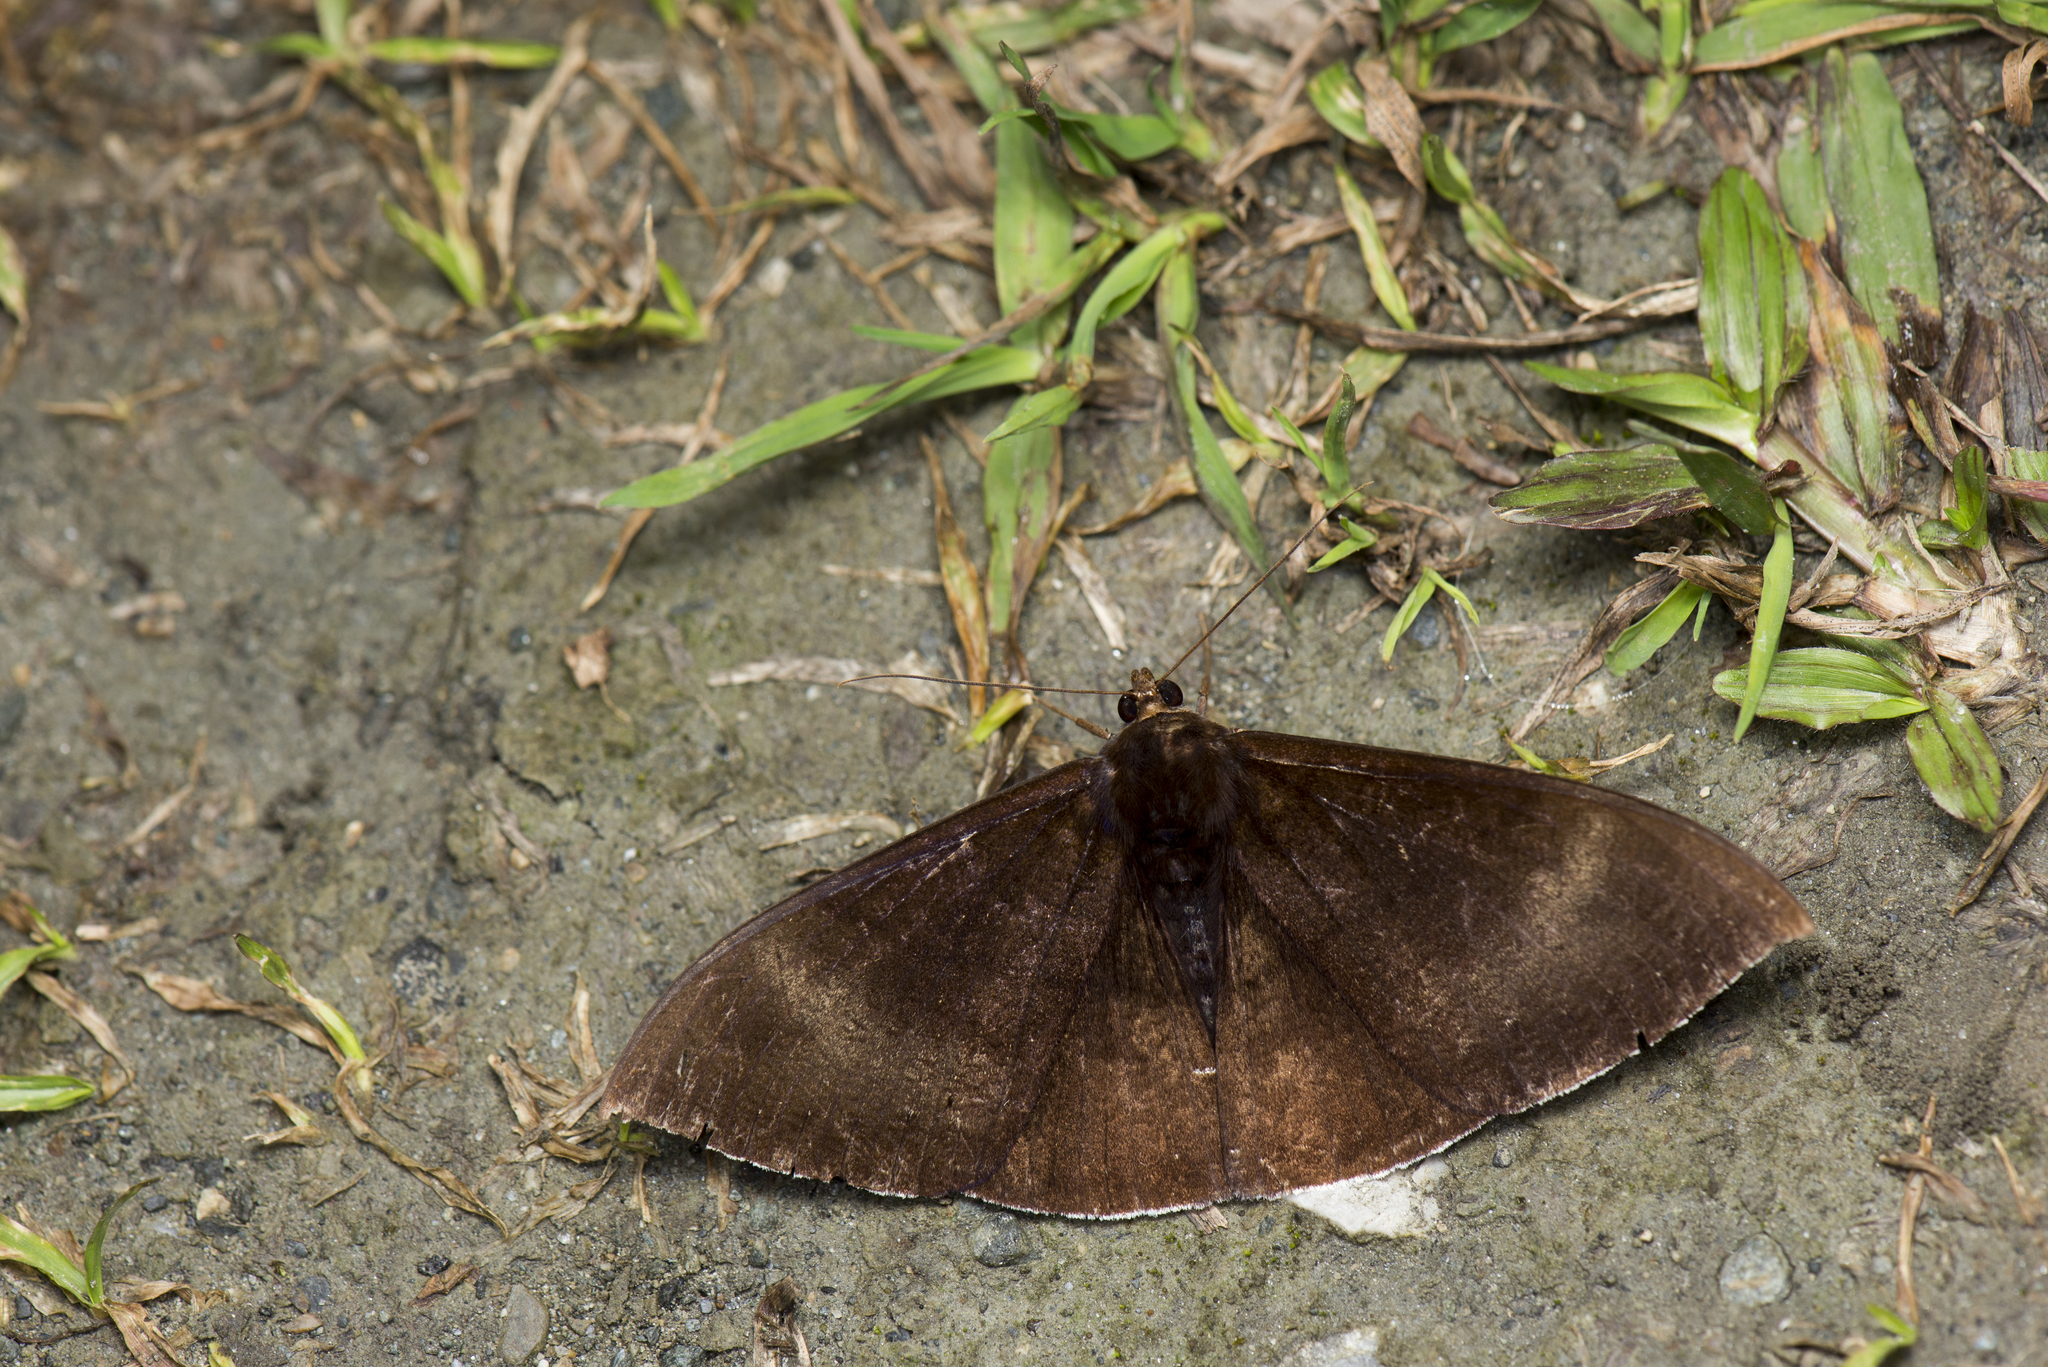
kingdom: Animalia
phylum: Arthropoda
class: Insecta
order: Lepidoptera
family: Erebidae
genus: Lygniodes
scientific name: Lygniodes hypoleuca
